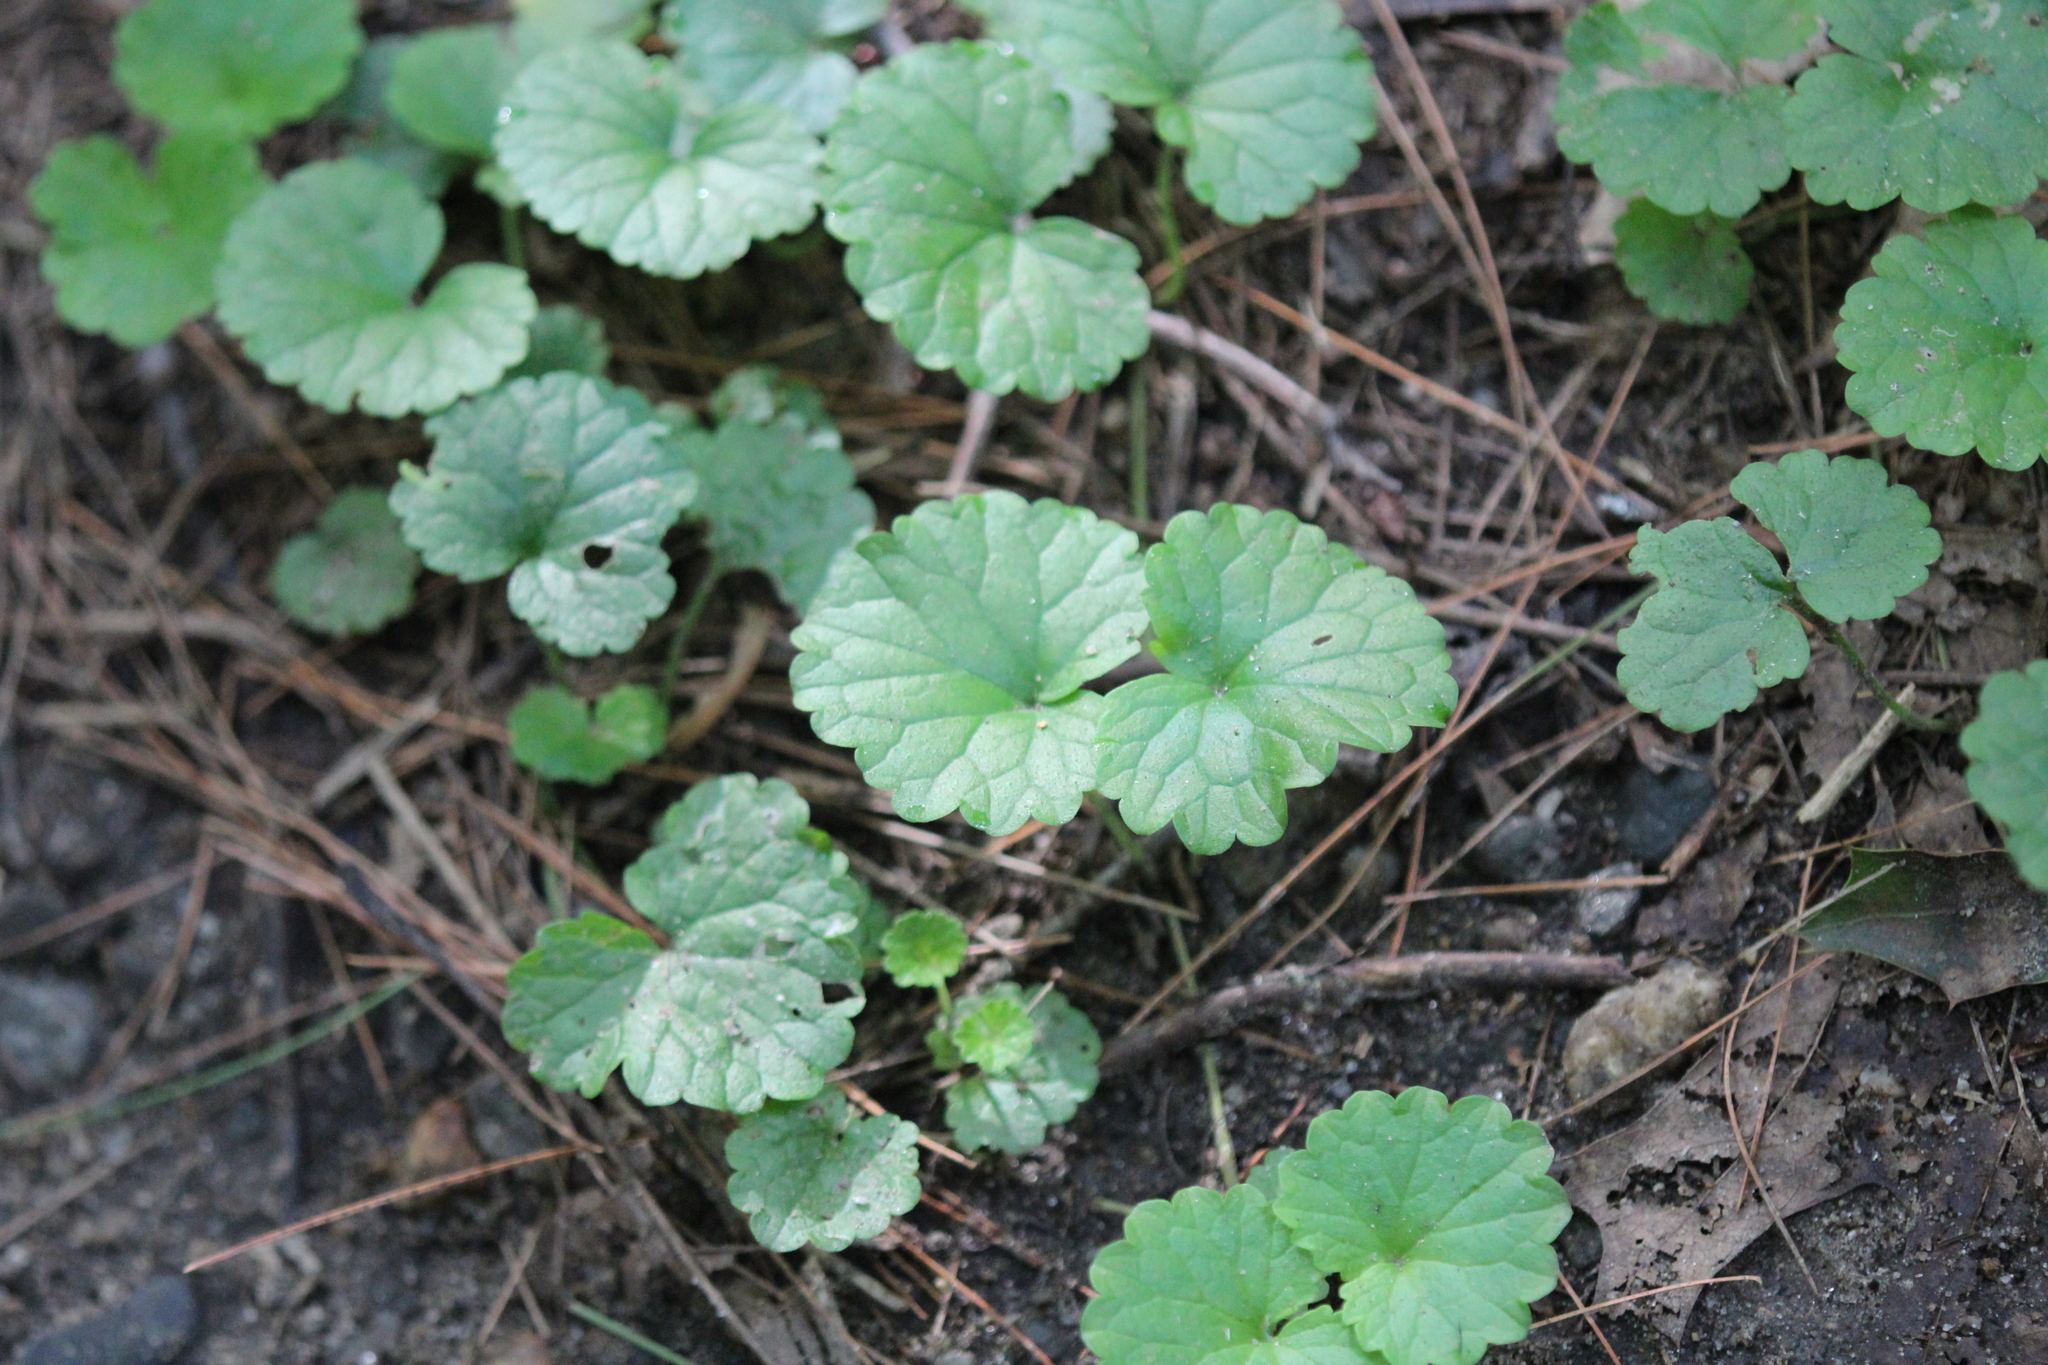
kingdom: Plantae
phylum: Tracheophyta
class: Magnoliopsida
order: Lamiales
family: Lamiaceae
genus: Glechoma
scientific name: Glechoma hederacea
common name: Ground ivy
